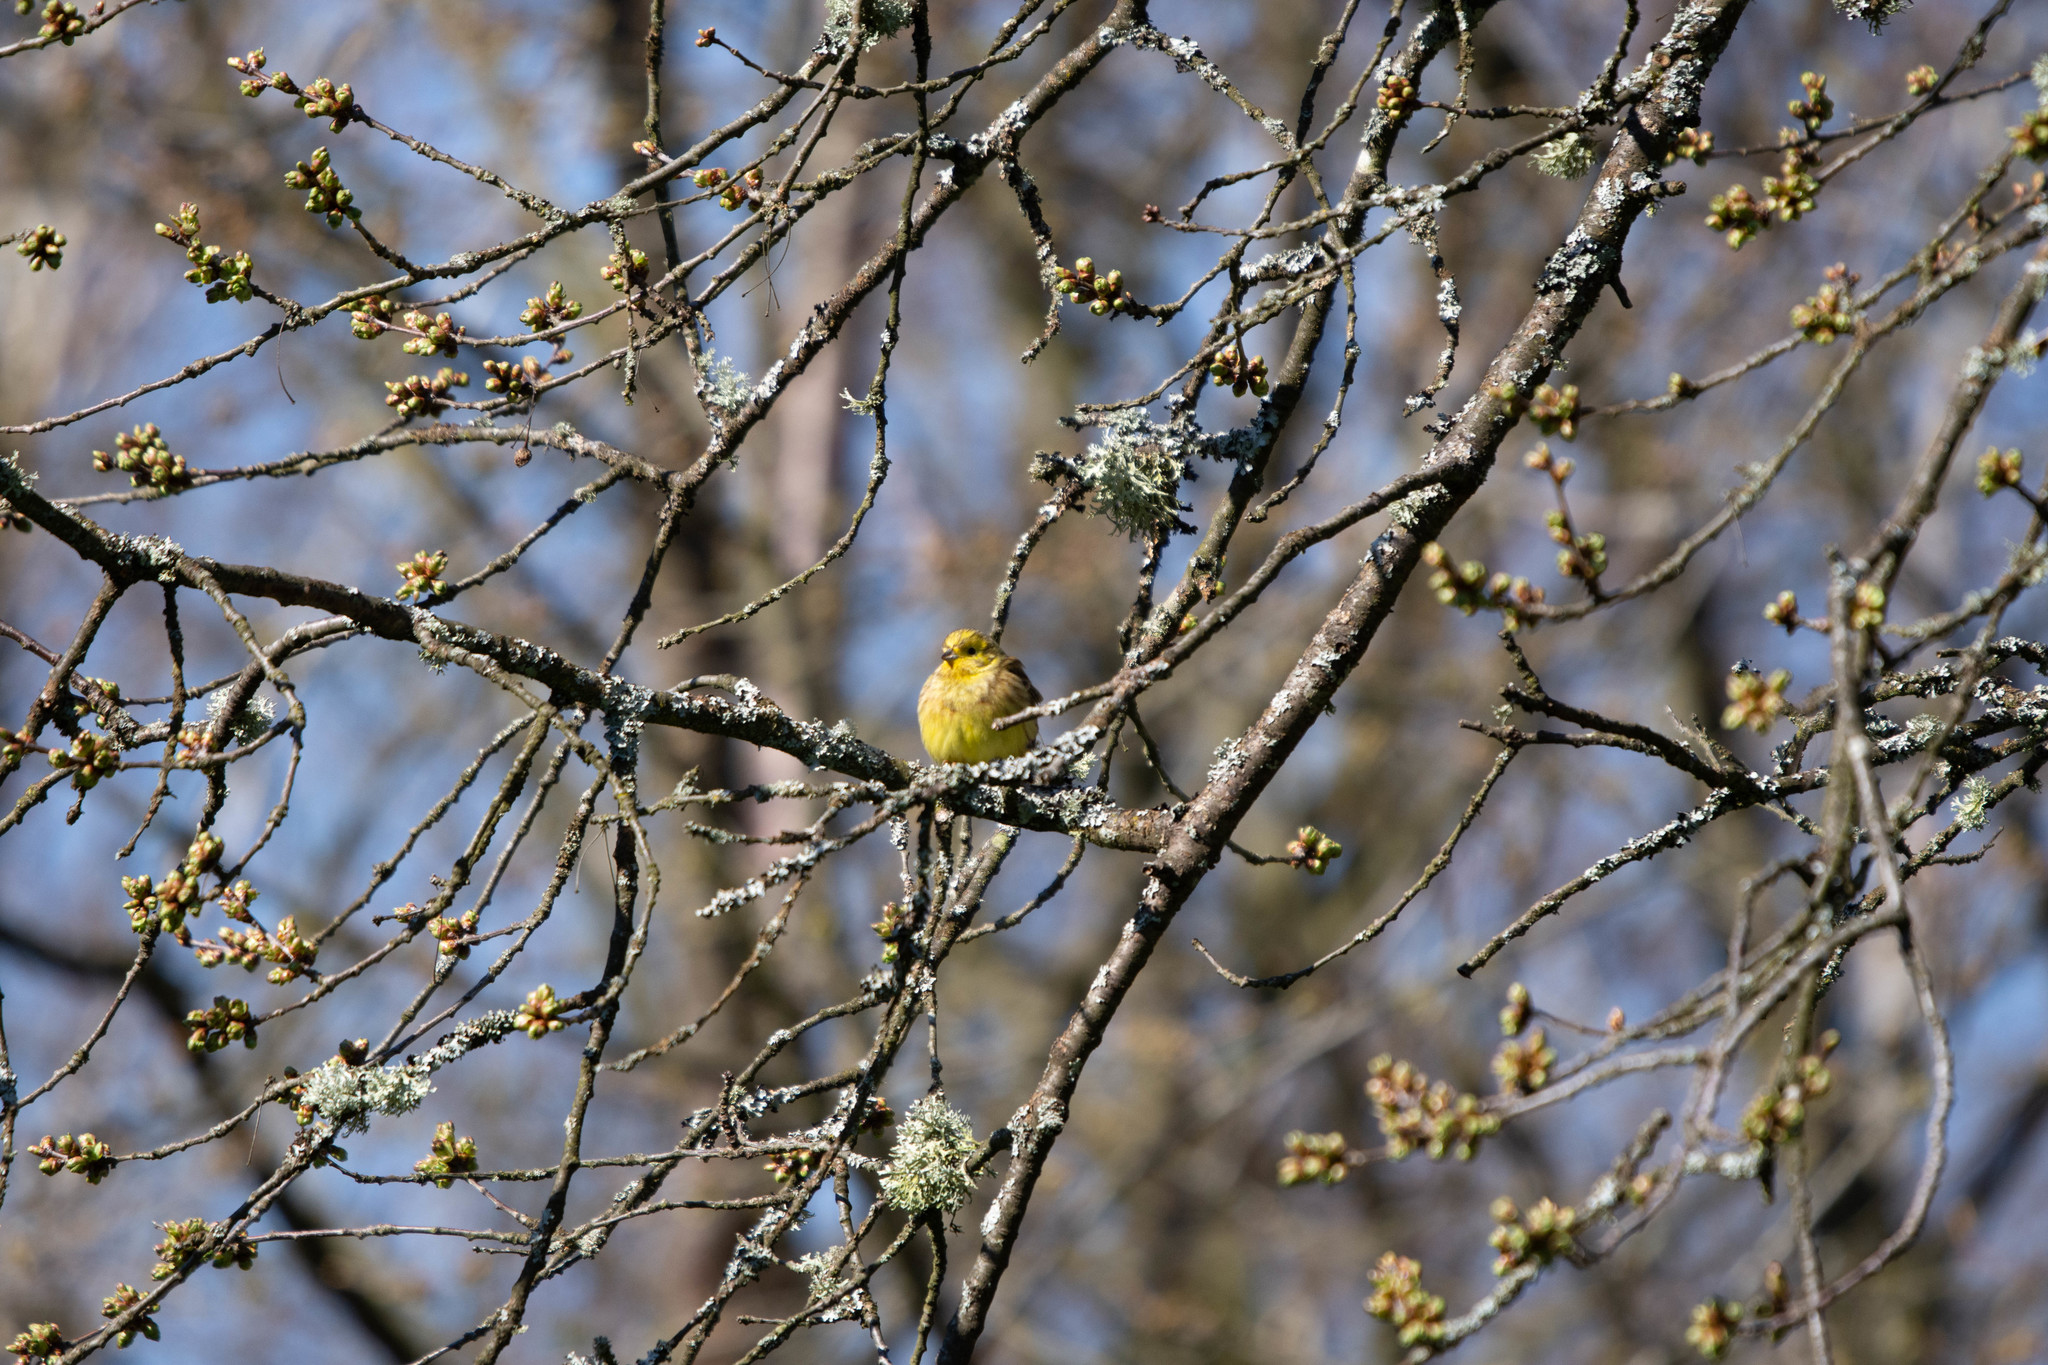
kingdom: Animalia
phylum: Chordata
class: Aves
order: Passeriformes
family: Emberizidae
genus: Emberiza
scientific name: Emberiza citrinella
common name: Yellowhammer
